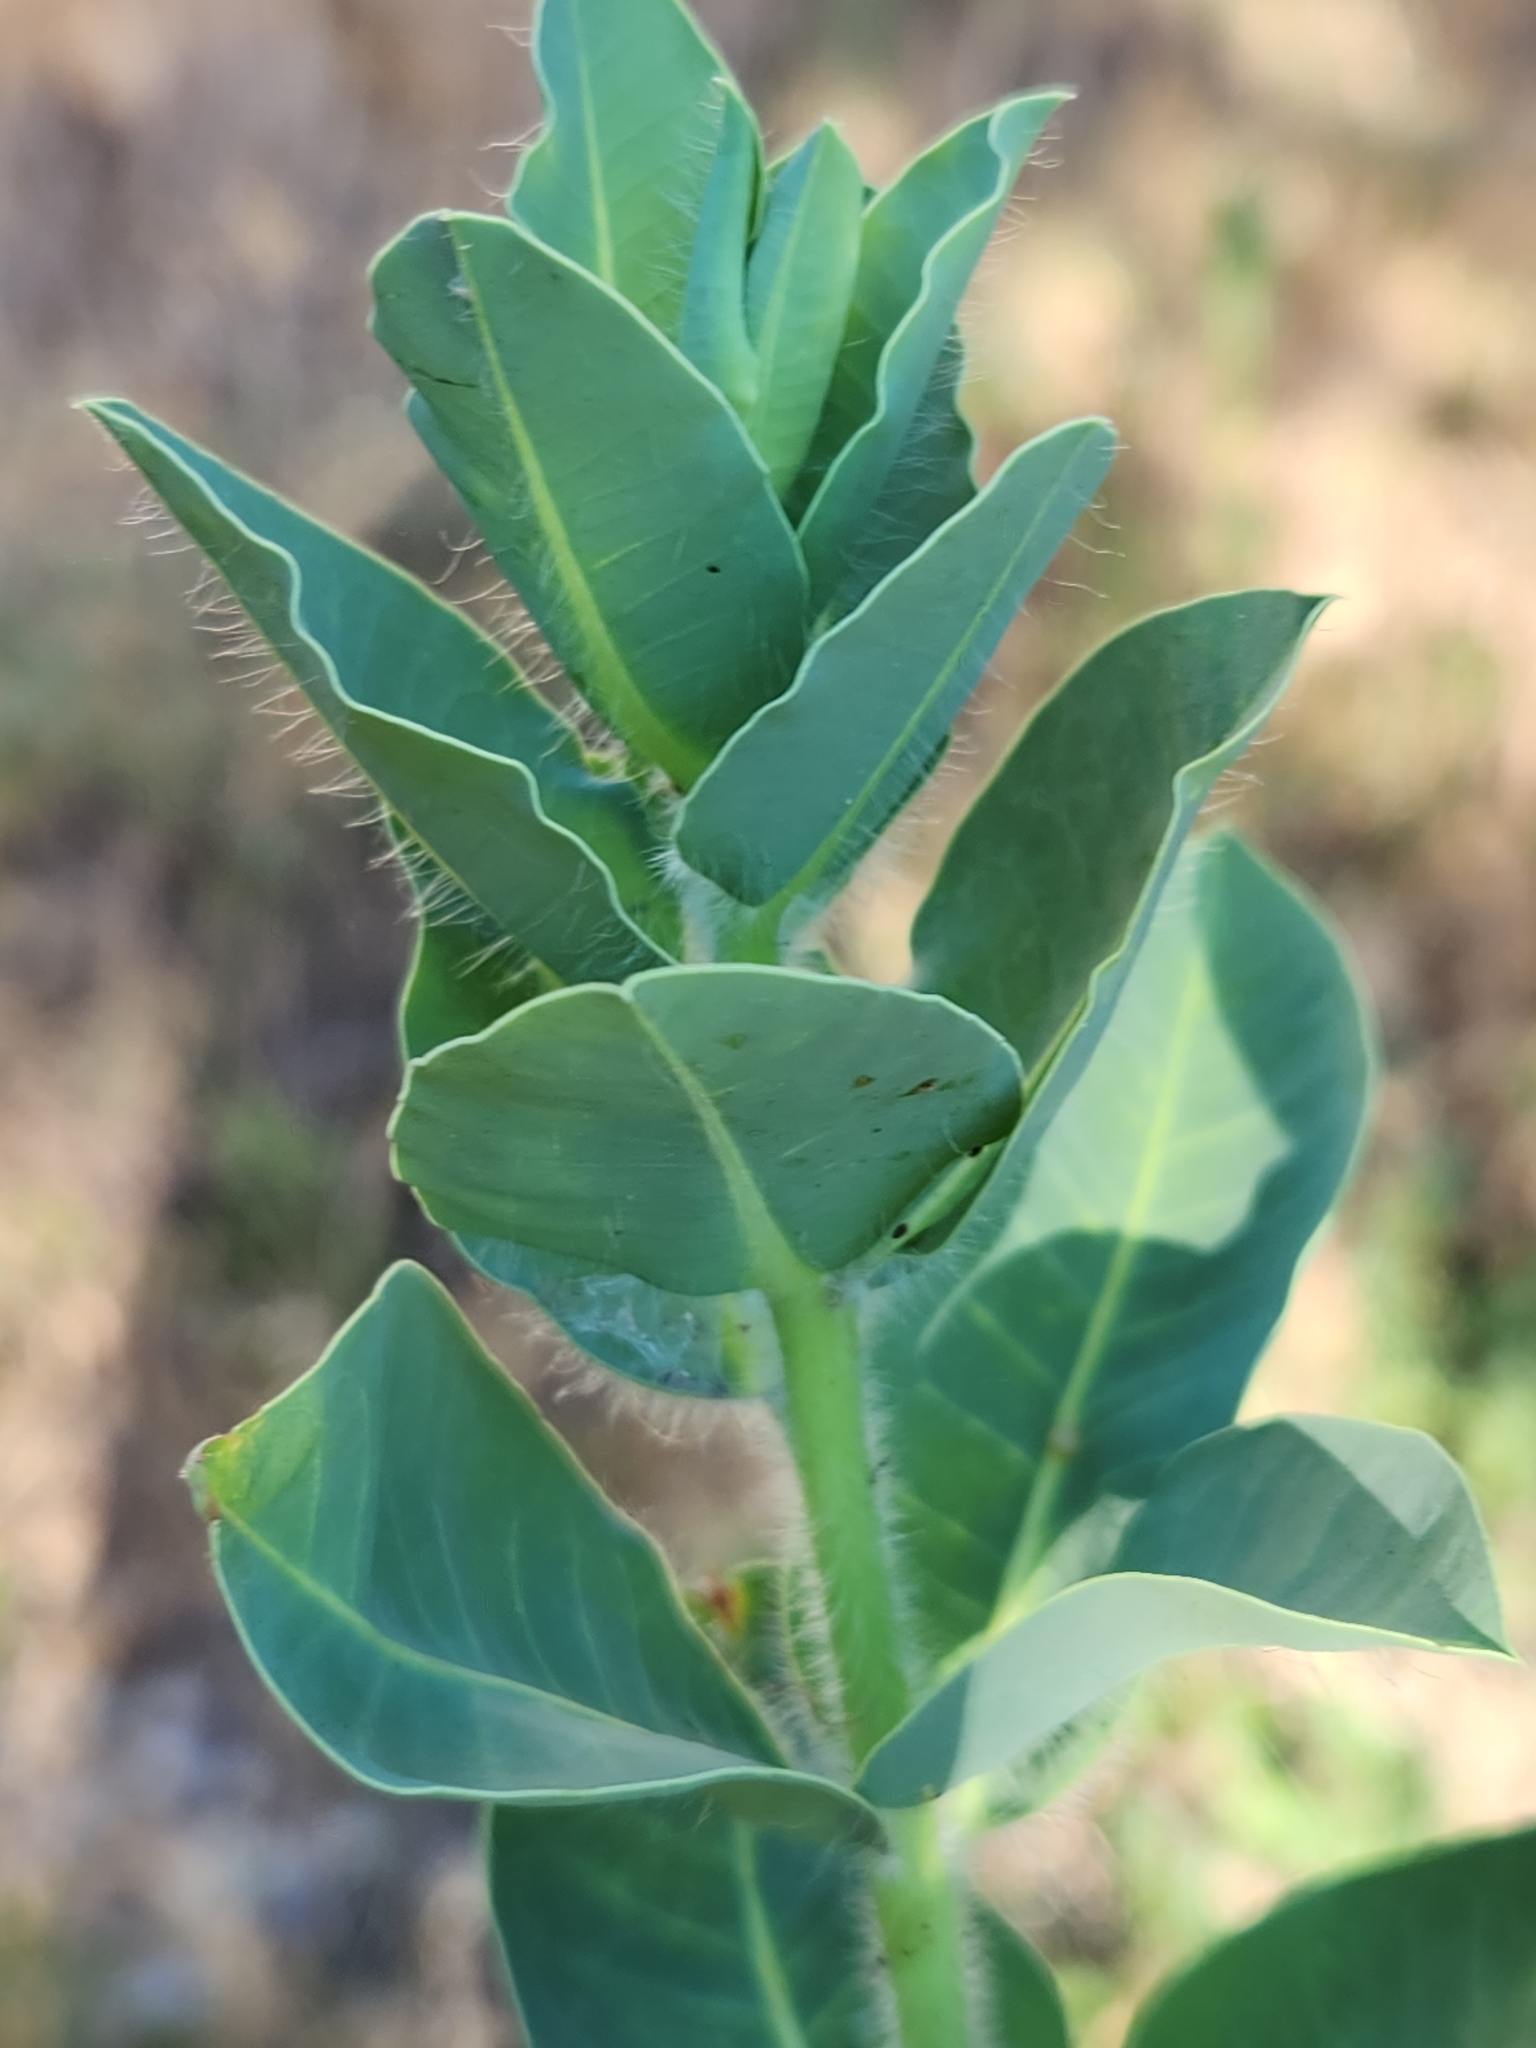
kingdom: Plantae
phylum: Tracheophyta
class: Magnoliopsida
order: Malpighiales
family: Euphorbiaceae
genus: Euphorbia
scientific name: Euphorbia marginata
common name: Ghostweed
